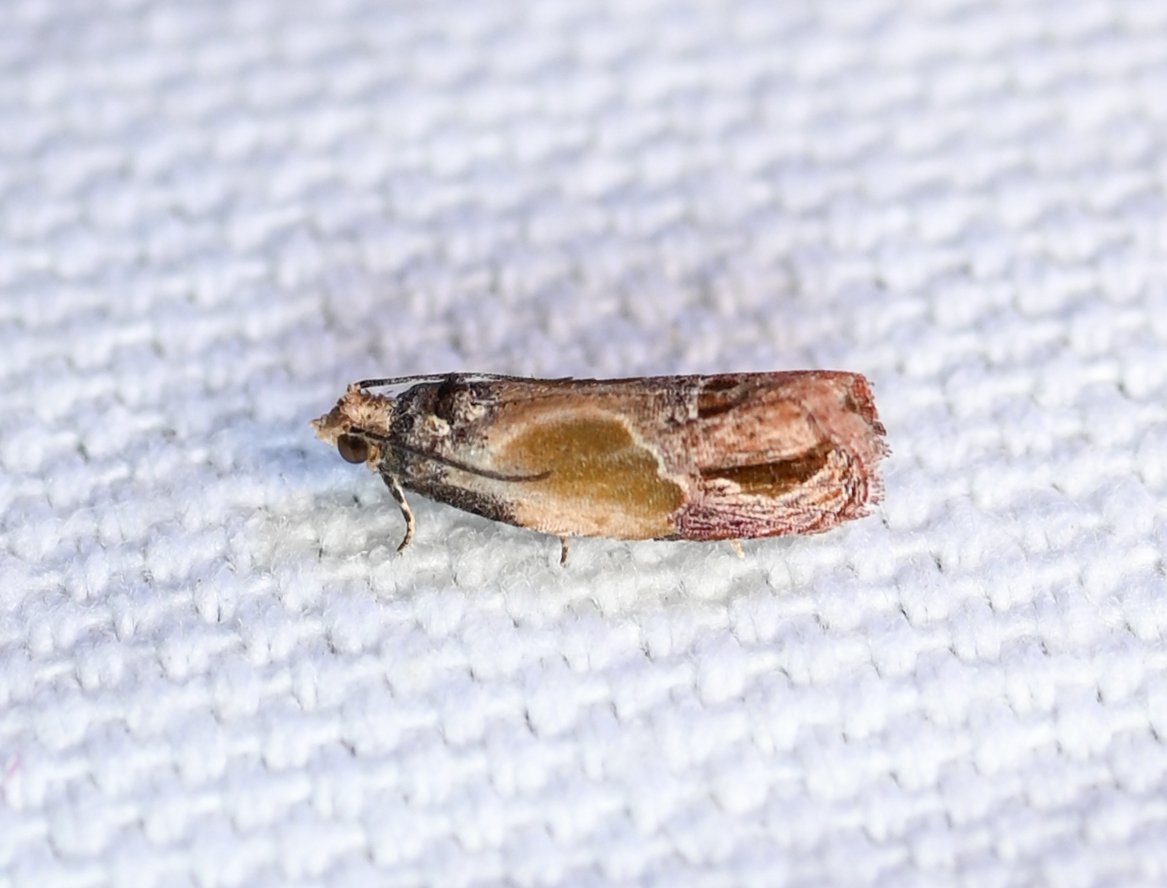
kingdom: Animalia
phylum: Arthropoda
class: Insecta
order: Lepidoptera
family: Tortricidae
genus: Eumarozia
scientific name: Eumarozia malachitana
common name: Sculptured moth
